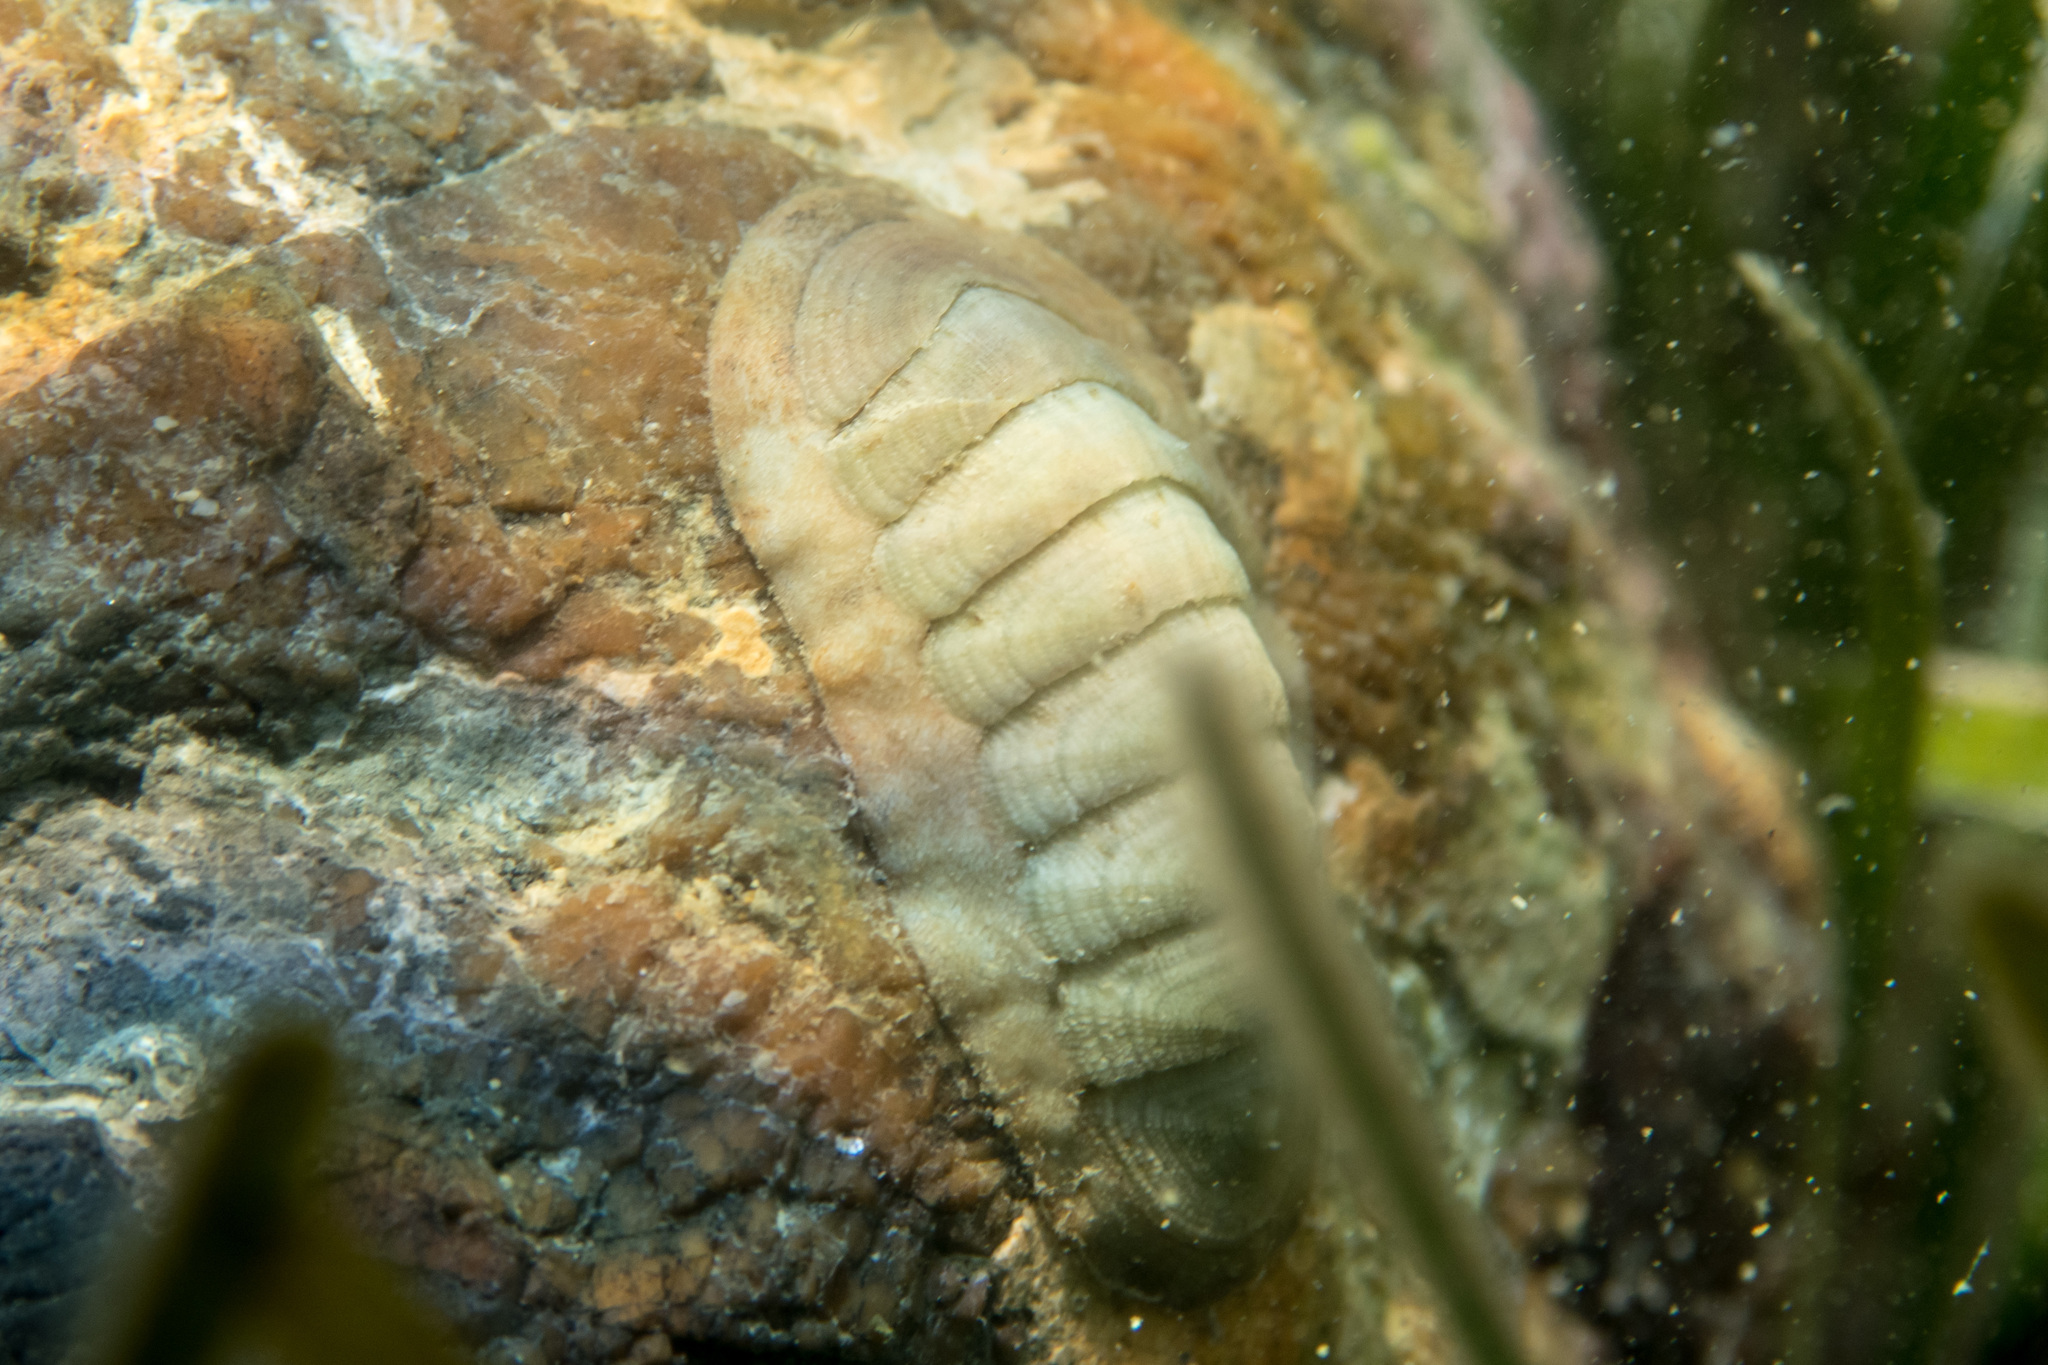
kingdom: Animalia
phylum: Mollusca
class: Polyplacophora
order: Chitonida
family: Ischnochitonidae
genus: Ischnochiton
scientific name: Ischnochiton rissoi
